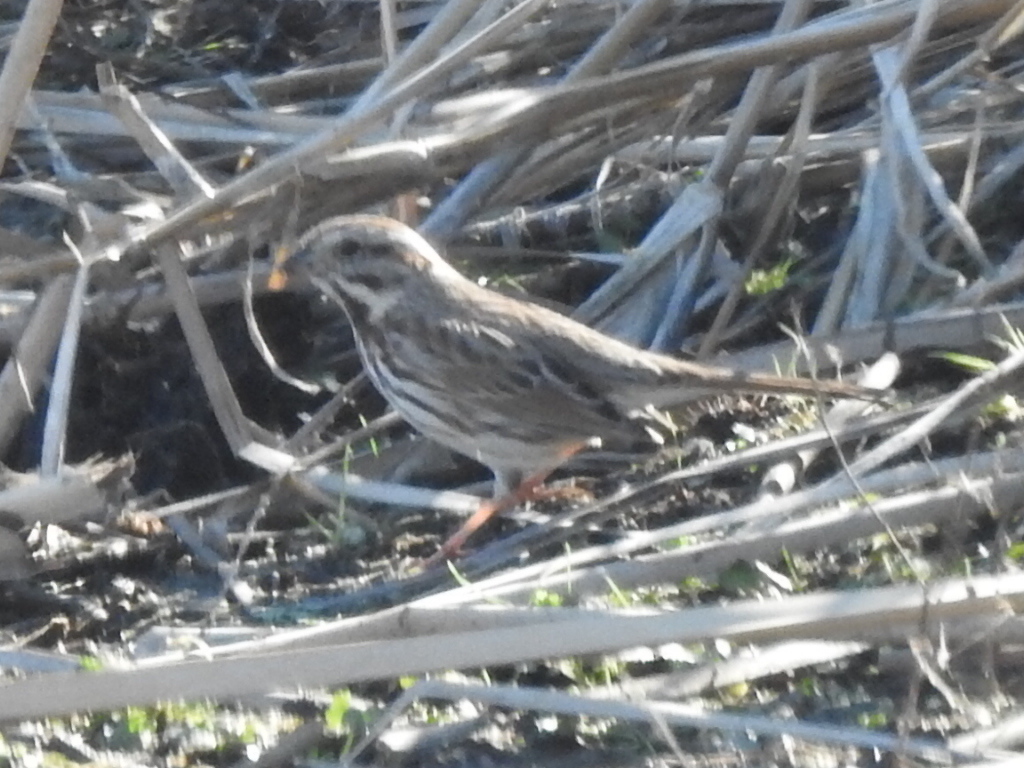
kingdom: Animalia
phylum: Chordata
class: Aves
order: Passeriformes
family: Passerellidae
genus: Melospiza
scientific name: Melospiza melodia
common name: Song sparrow
